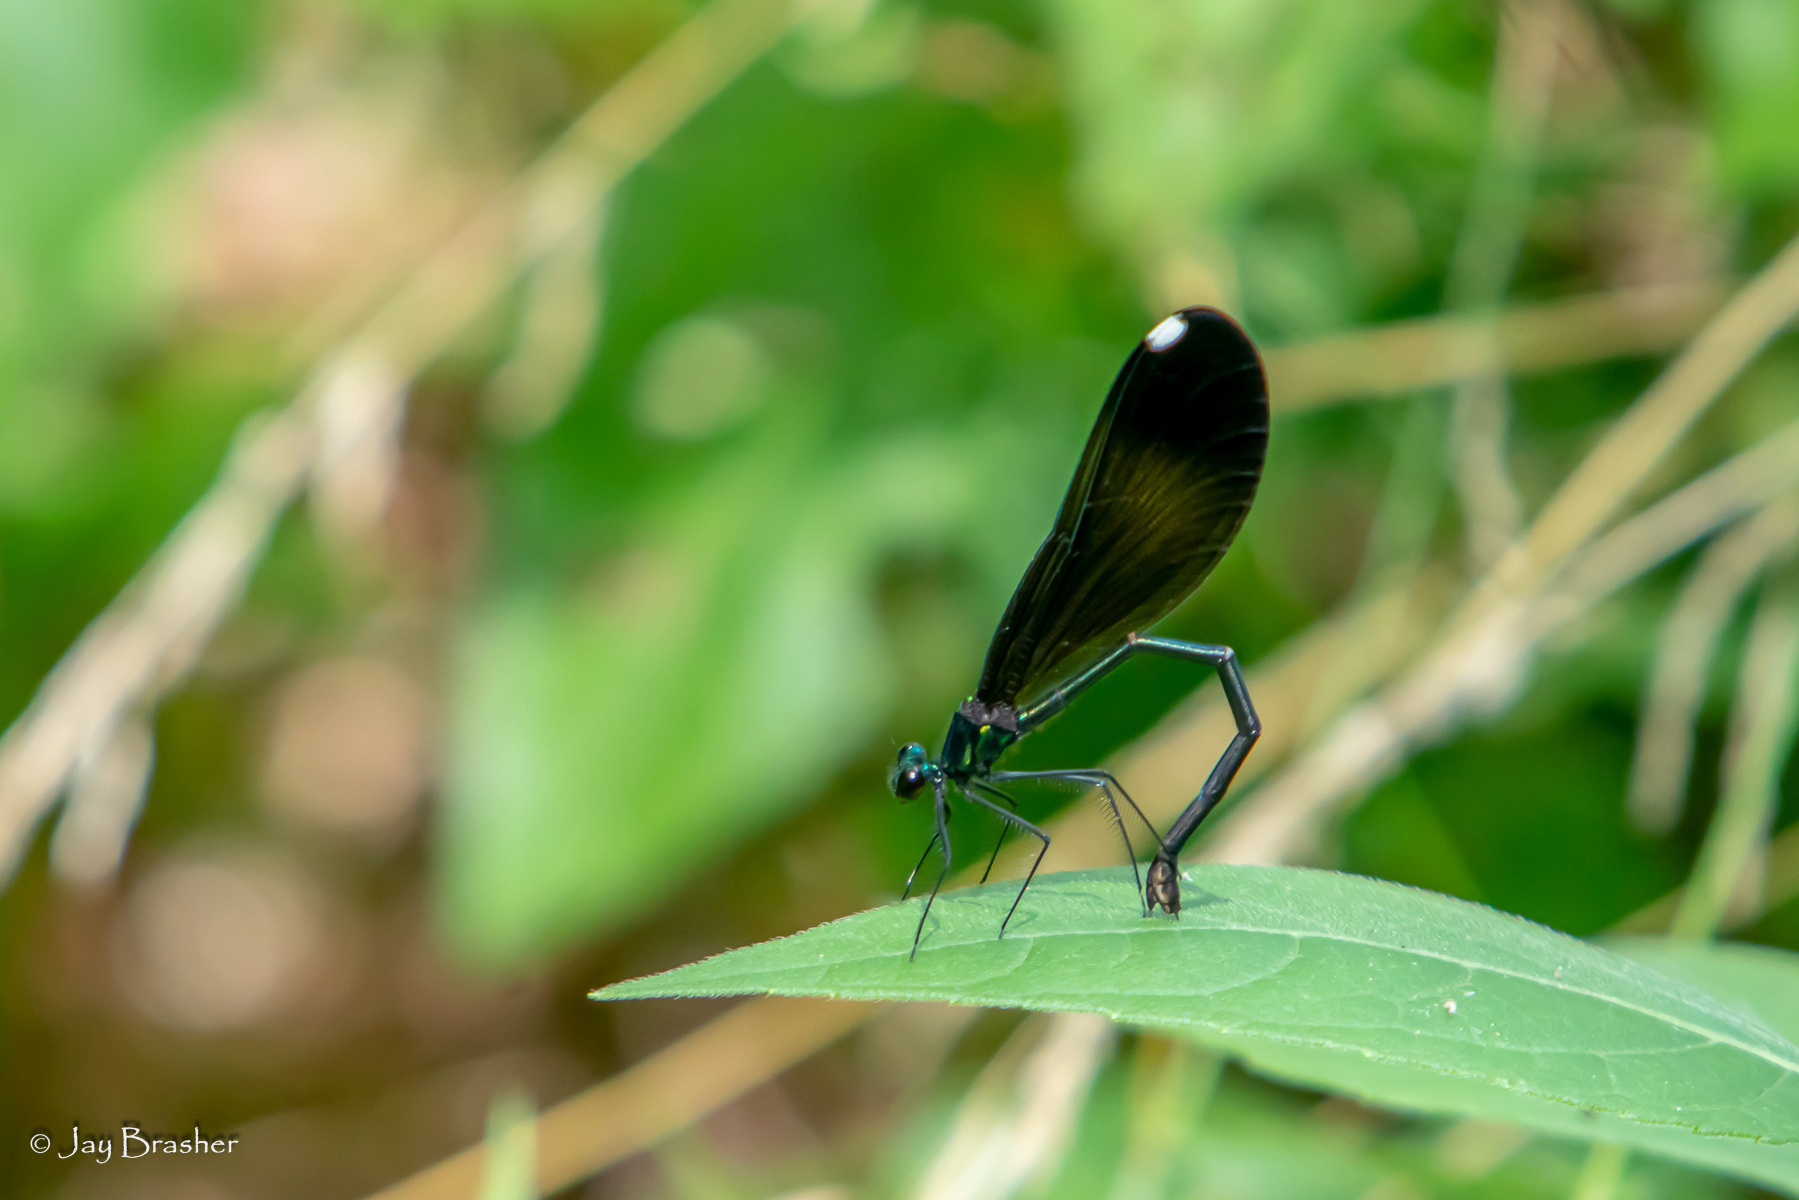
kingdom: Animalia
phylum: Arthropoda
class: Insecta
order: Odonata
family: Calopterygidae
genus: Calopteryx
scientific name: Calopteryx maculata
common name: Ebony jewelwing
